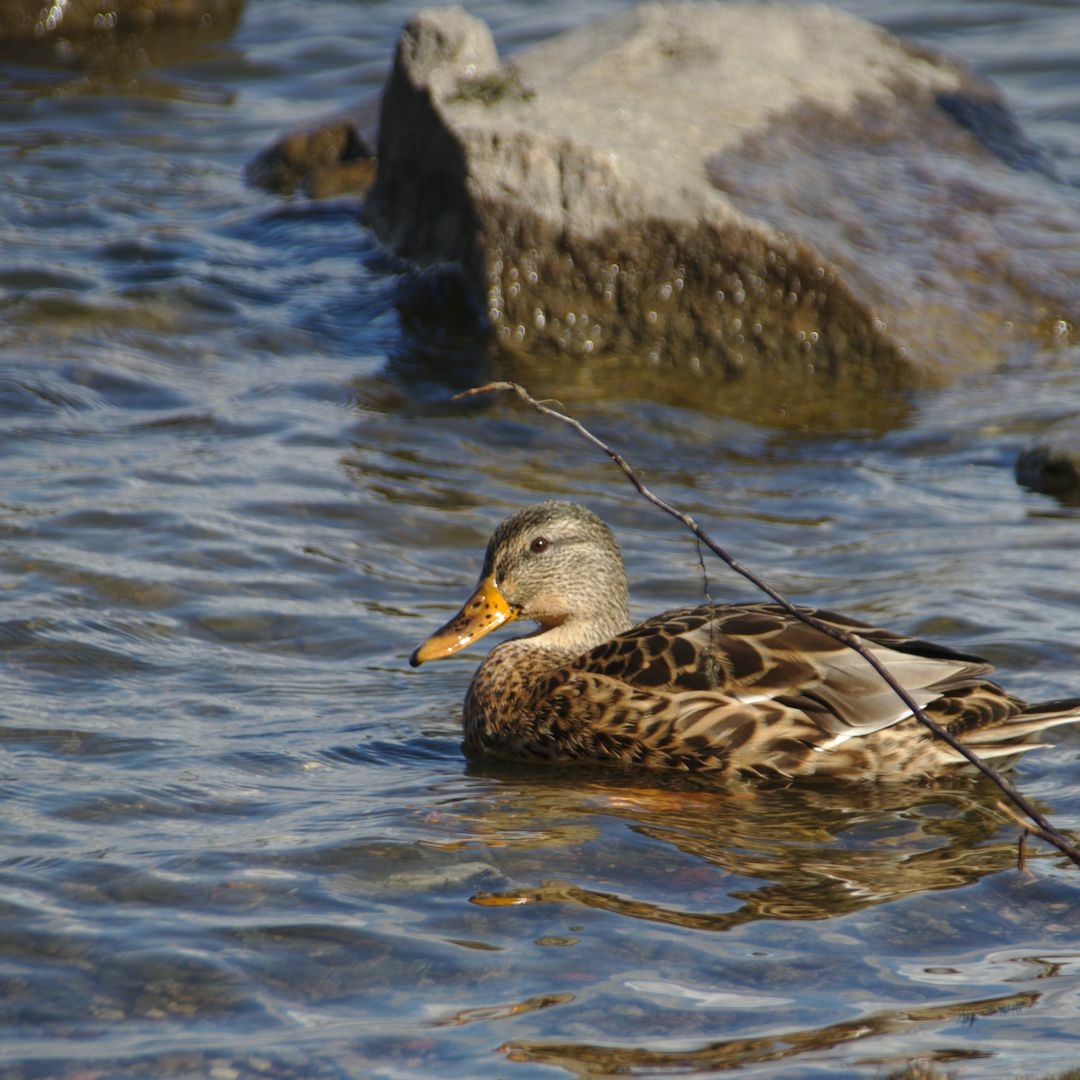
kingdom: Animalia
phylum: Chordata
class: Aves
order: Anseriformes
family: Anatidae
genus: Anas
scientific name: Anas platyrhynchos
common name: Mallard
